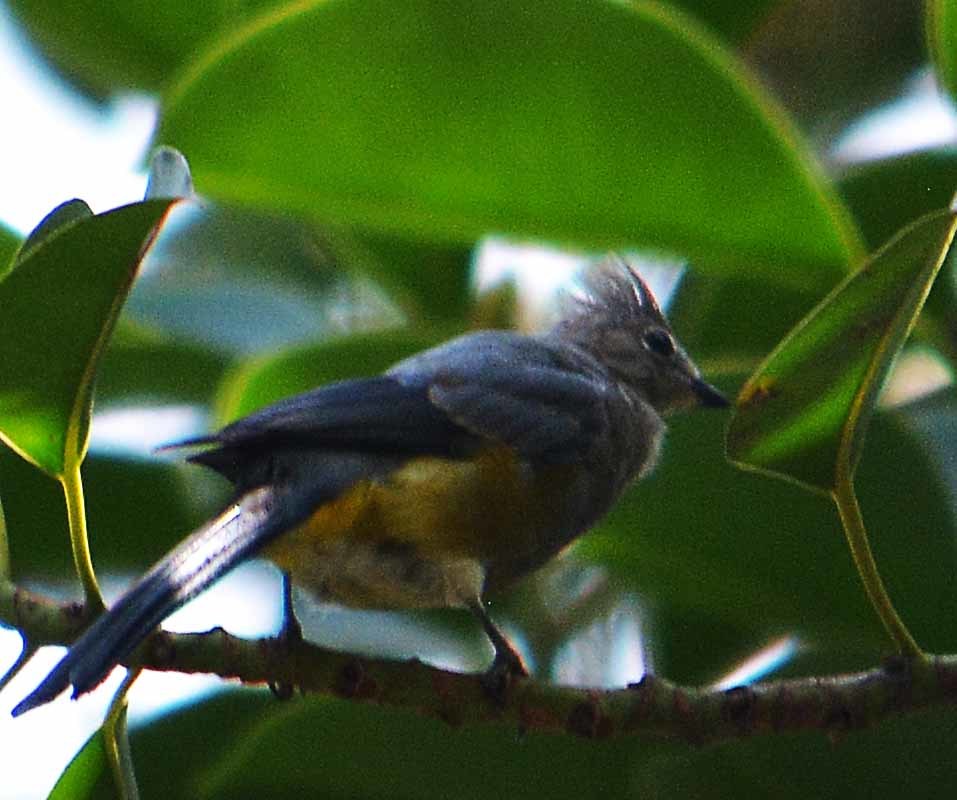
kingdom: Animalia
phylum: Chordata
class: Aves
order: Passeriformes
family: Ptilogonatidae
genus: Ptilogonys
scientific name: Ptilogonys cinereus
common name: Gray silky-flycatcher
